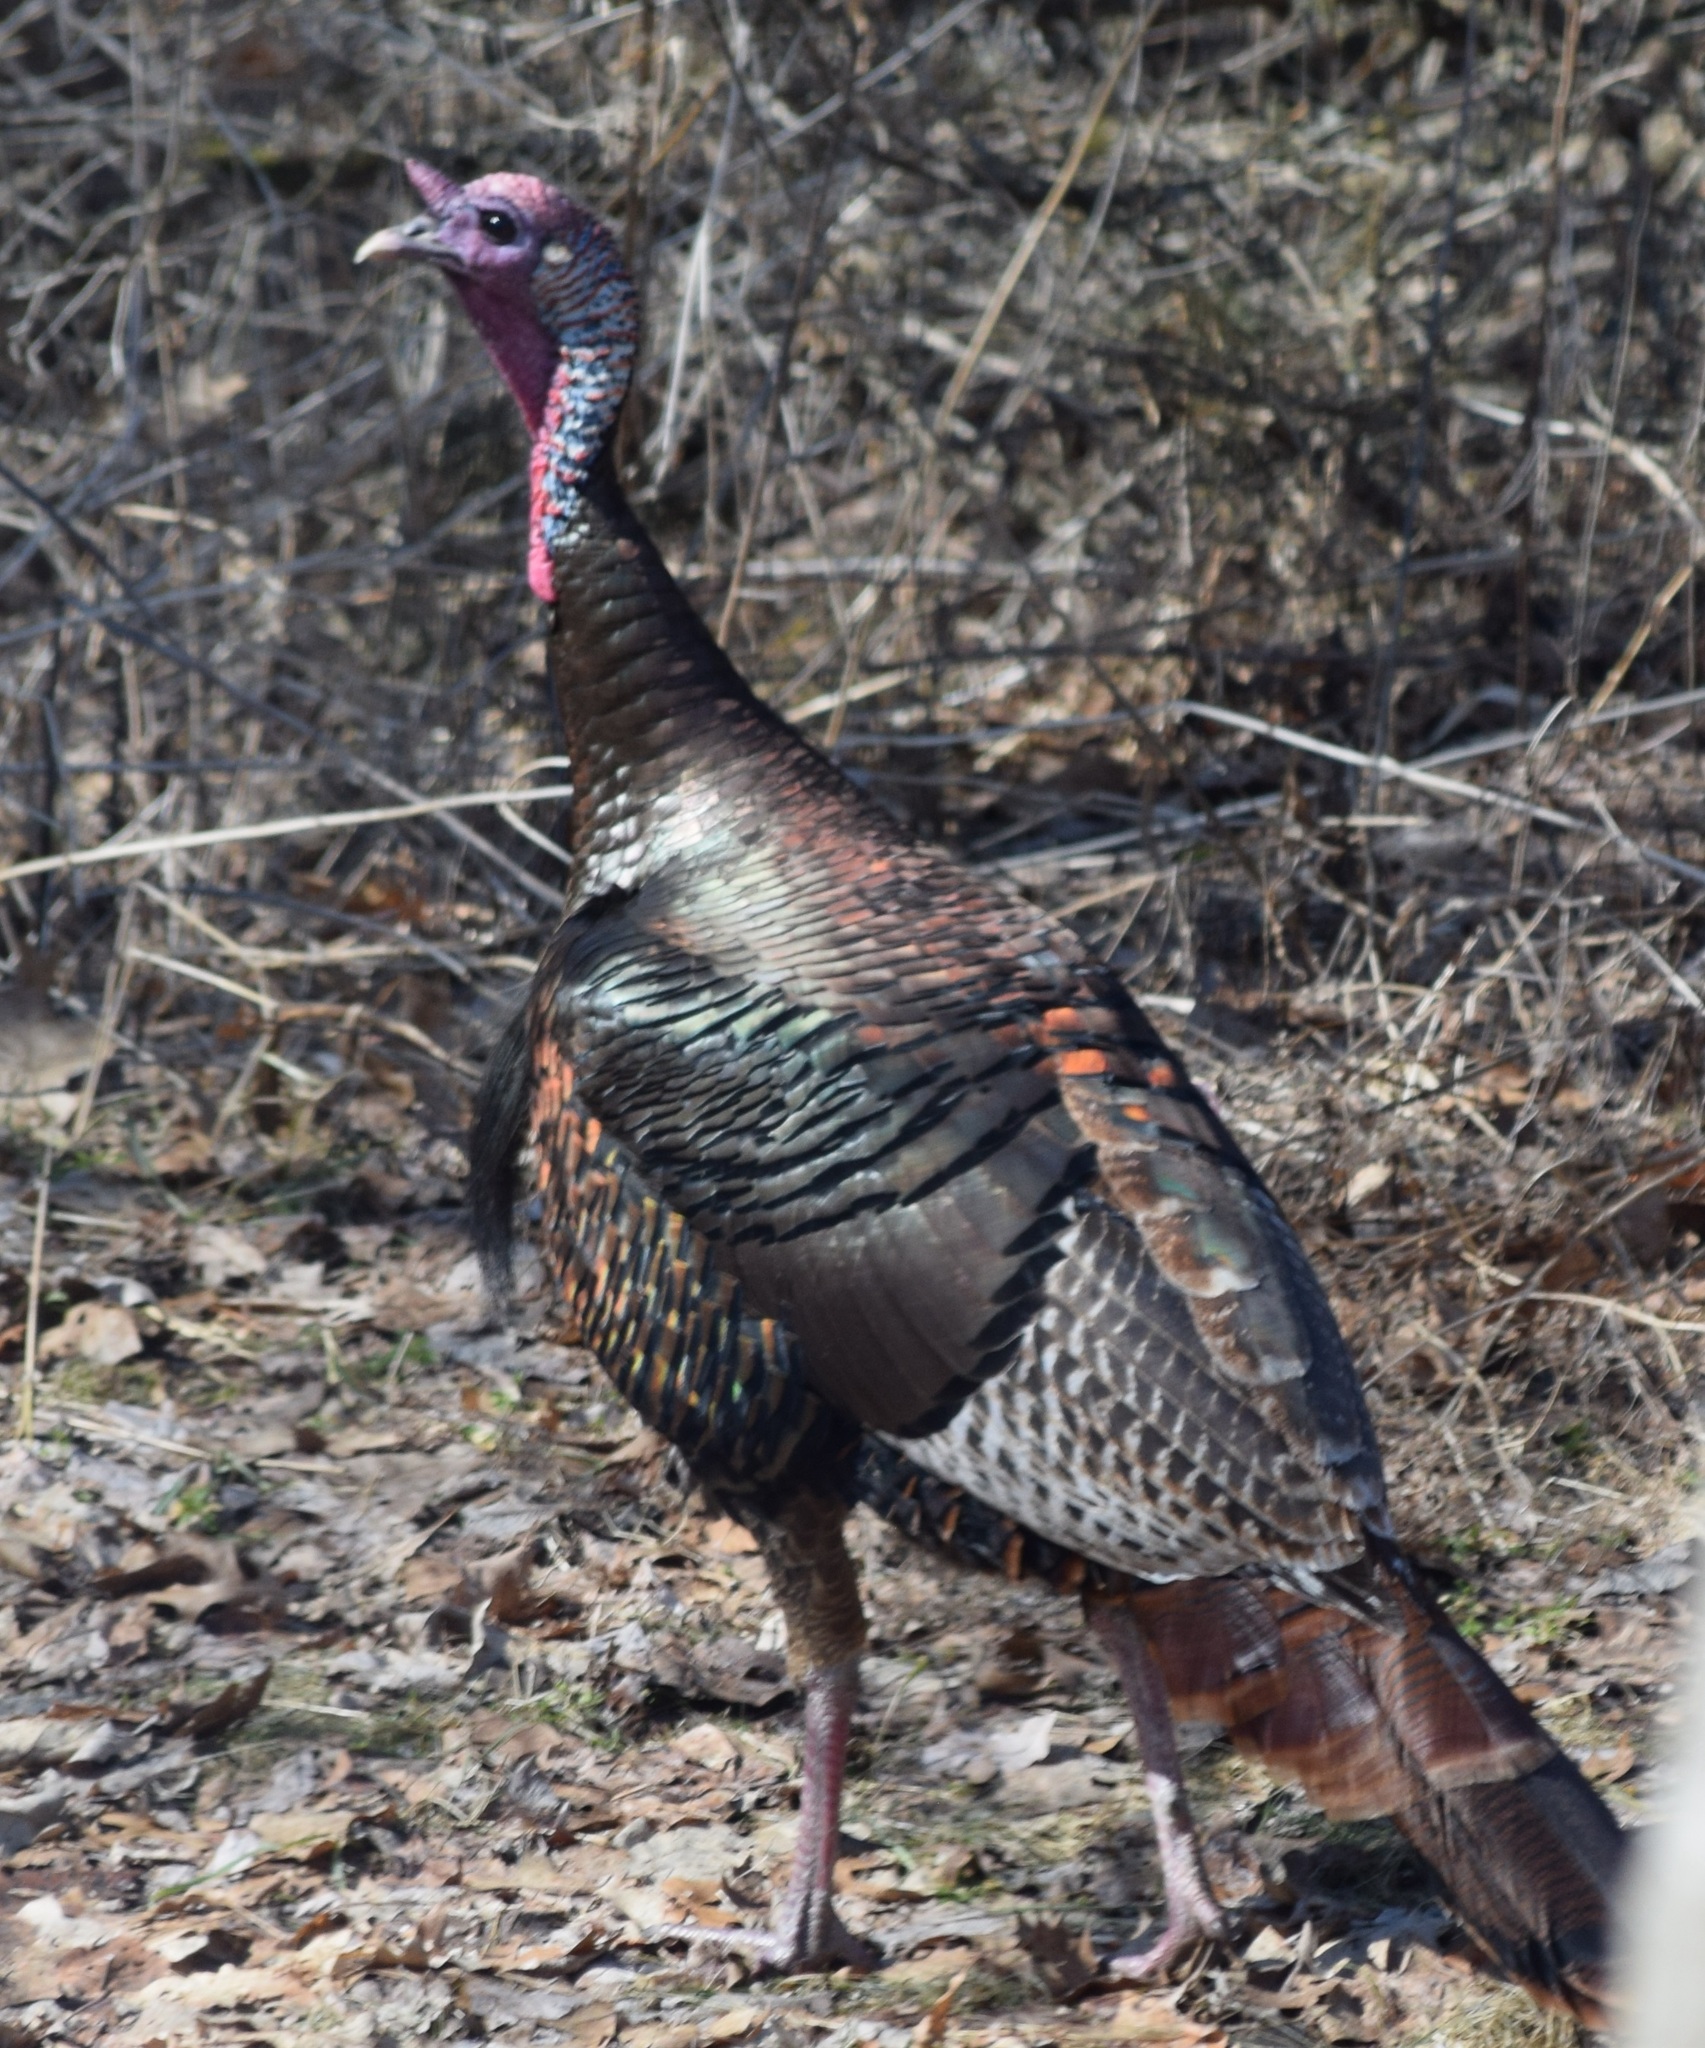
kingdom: Animalia
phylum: Chordata
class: Aves
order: Galliformes
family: Phasianidae
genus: Meleagris
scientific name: Meleagris gallopavo
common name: Wild turkey
